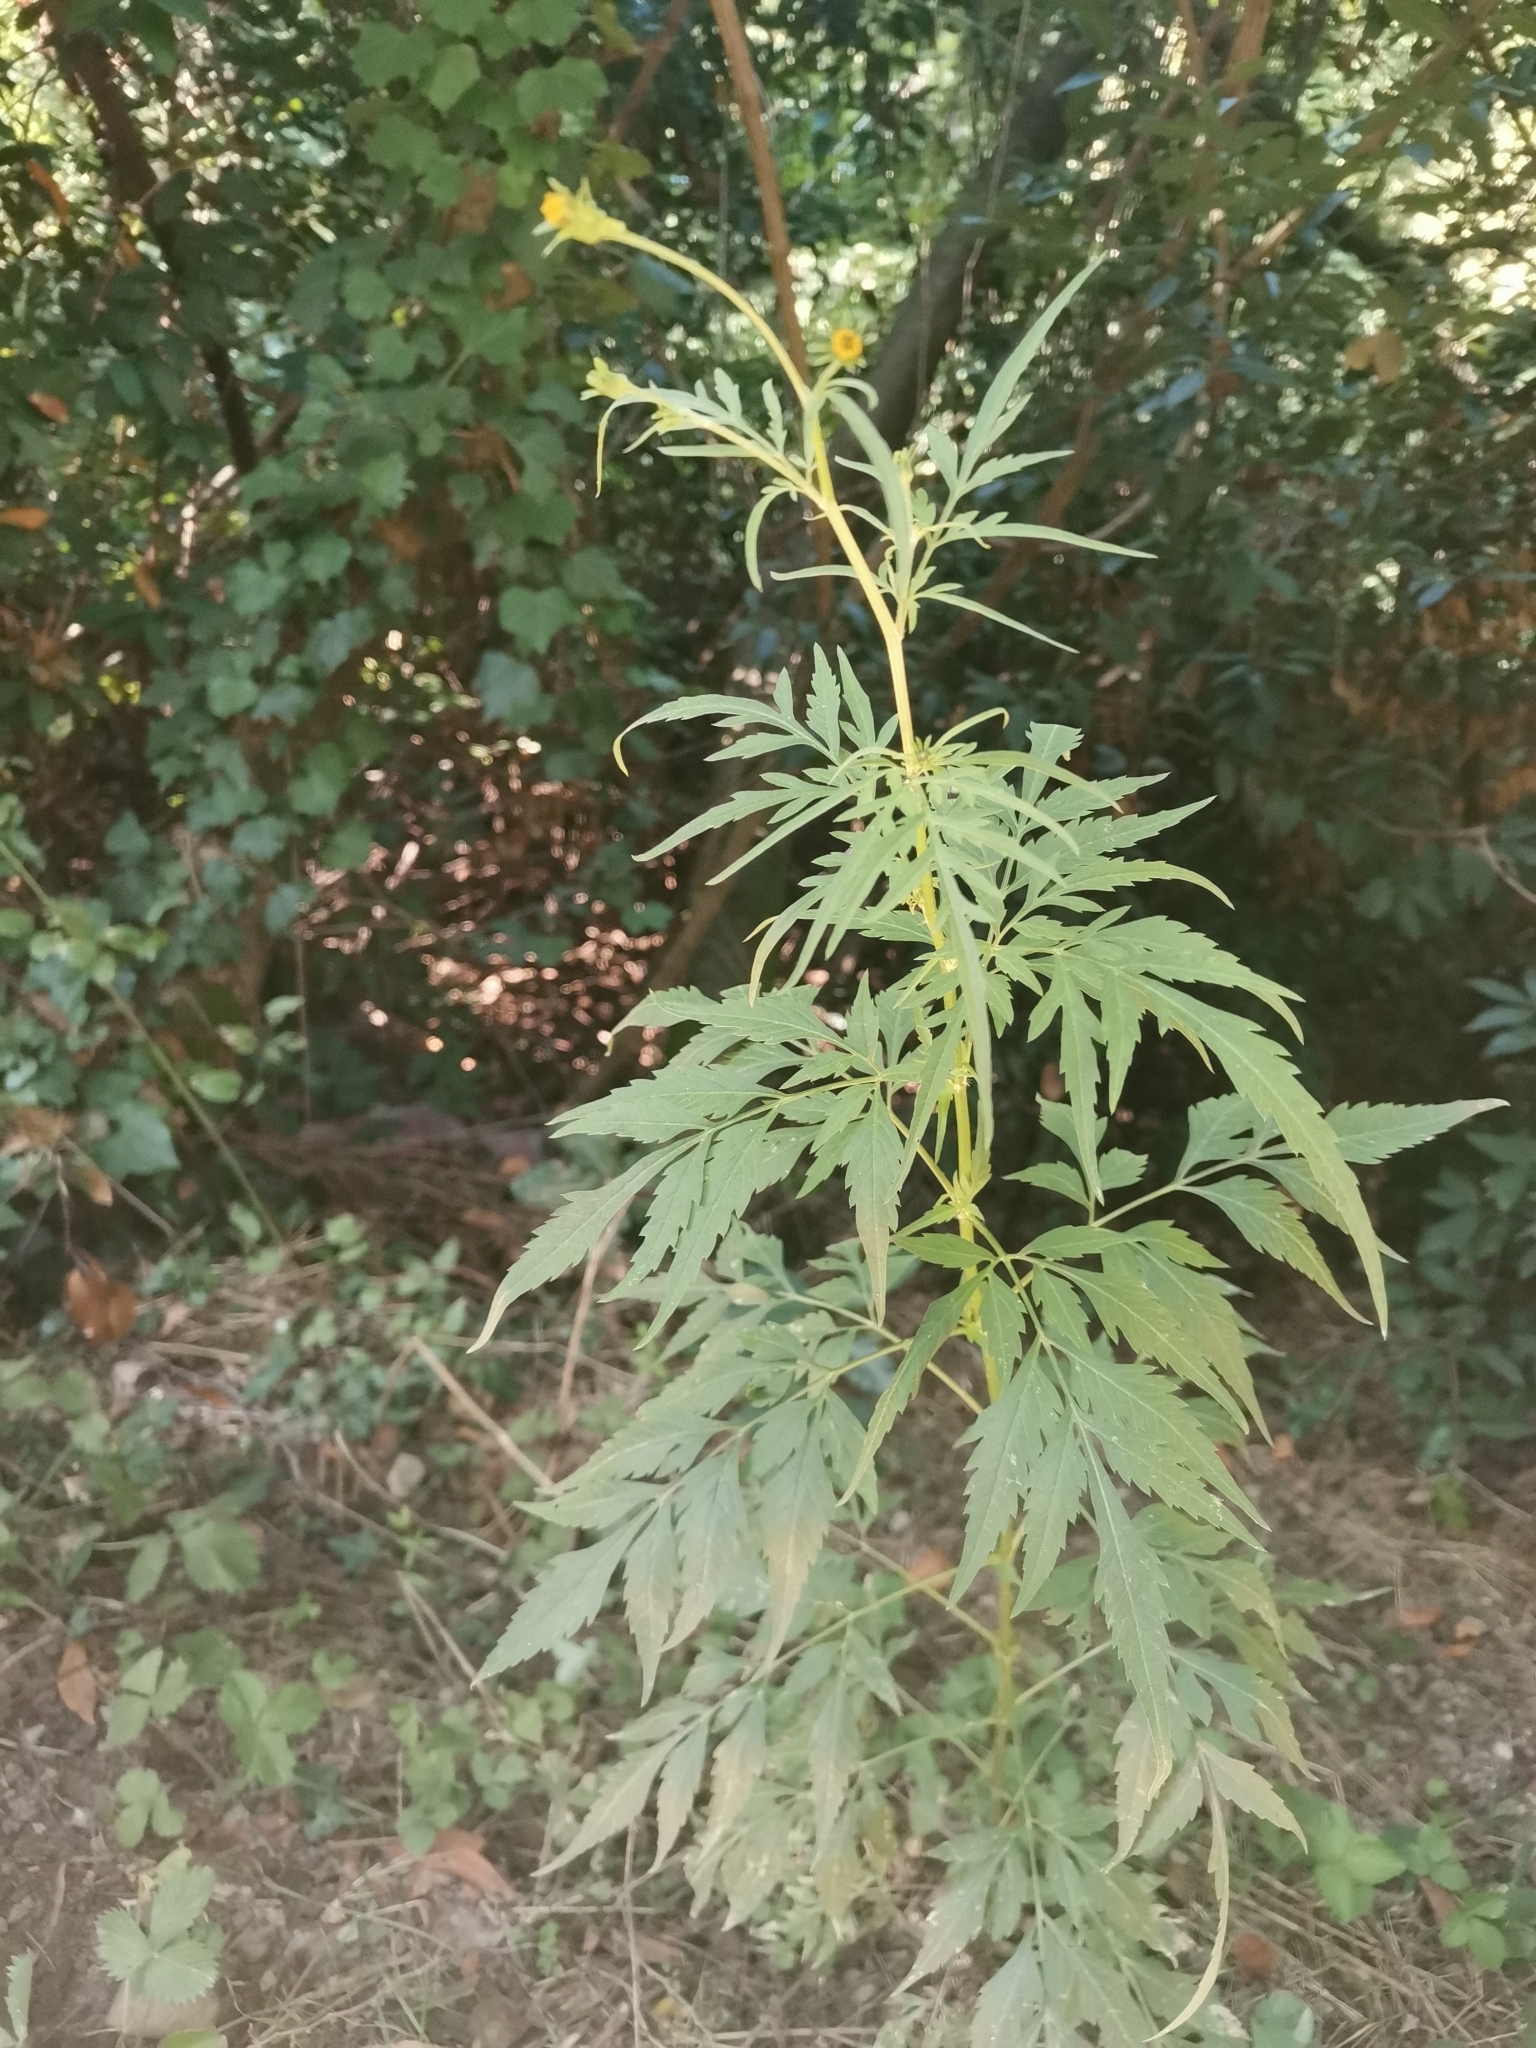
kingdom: Plantae
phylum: Tracheophyta
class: Magnoliopsida
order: Asterales
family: Asteraceae
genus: Bidens
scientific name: Bidens subalternans
